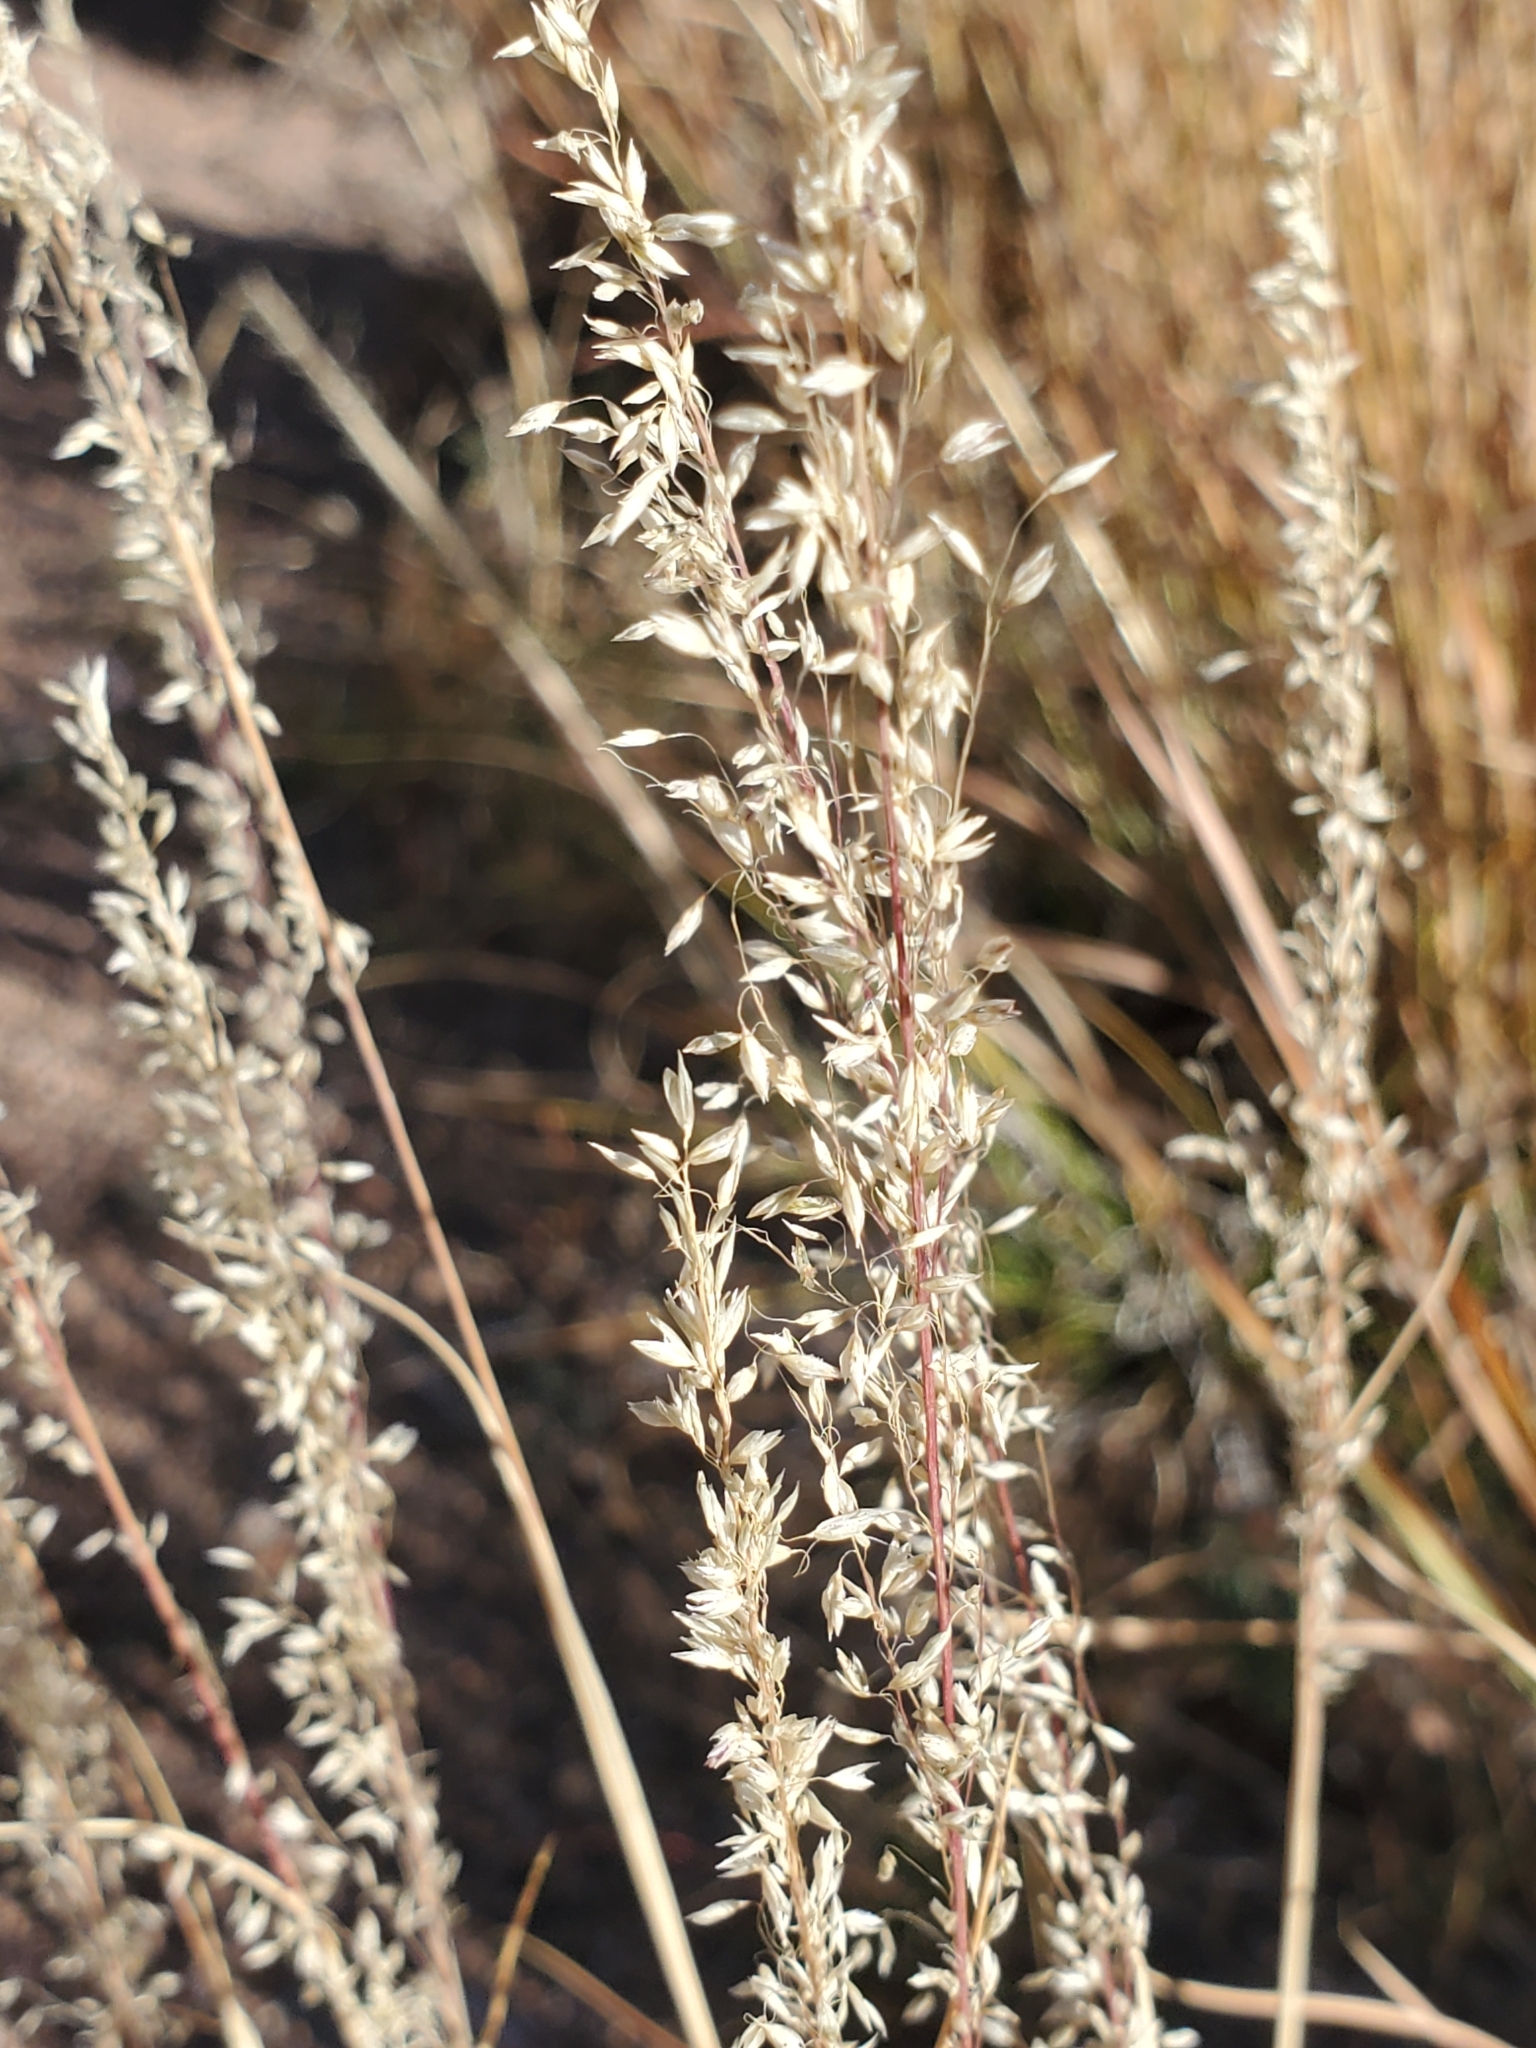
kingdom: Plantae
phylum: Tracheophyta
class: Liliopsida
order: Poales
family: Poaceae
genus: Muhlenbergia
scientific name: Muhlenbergia tricholepis
